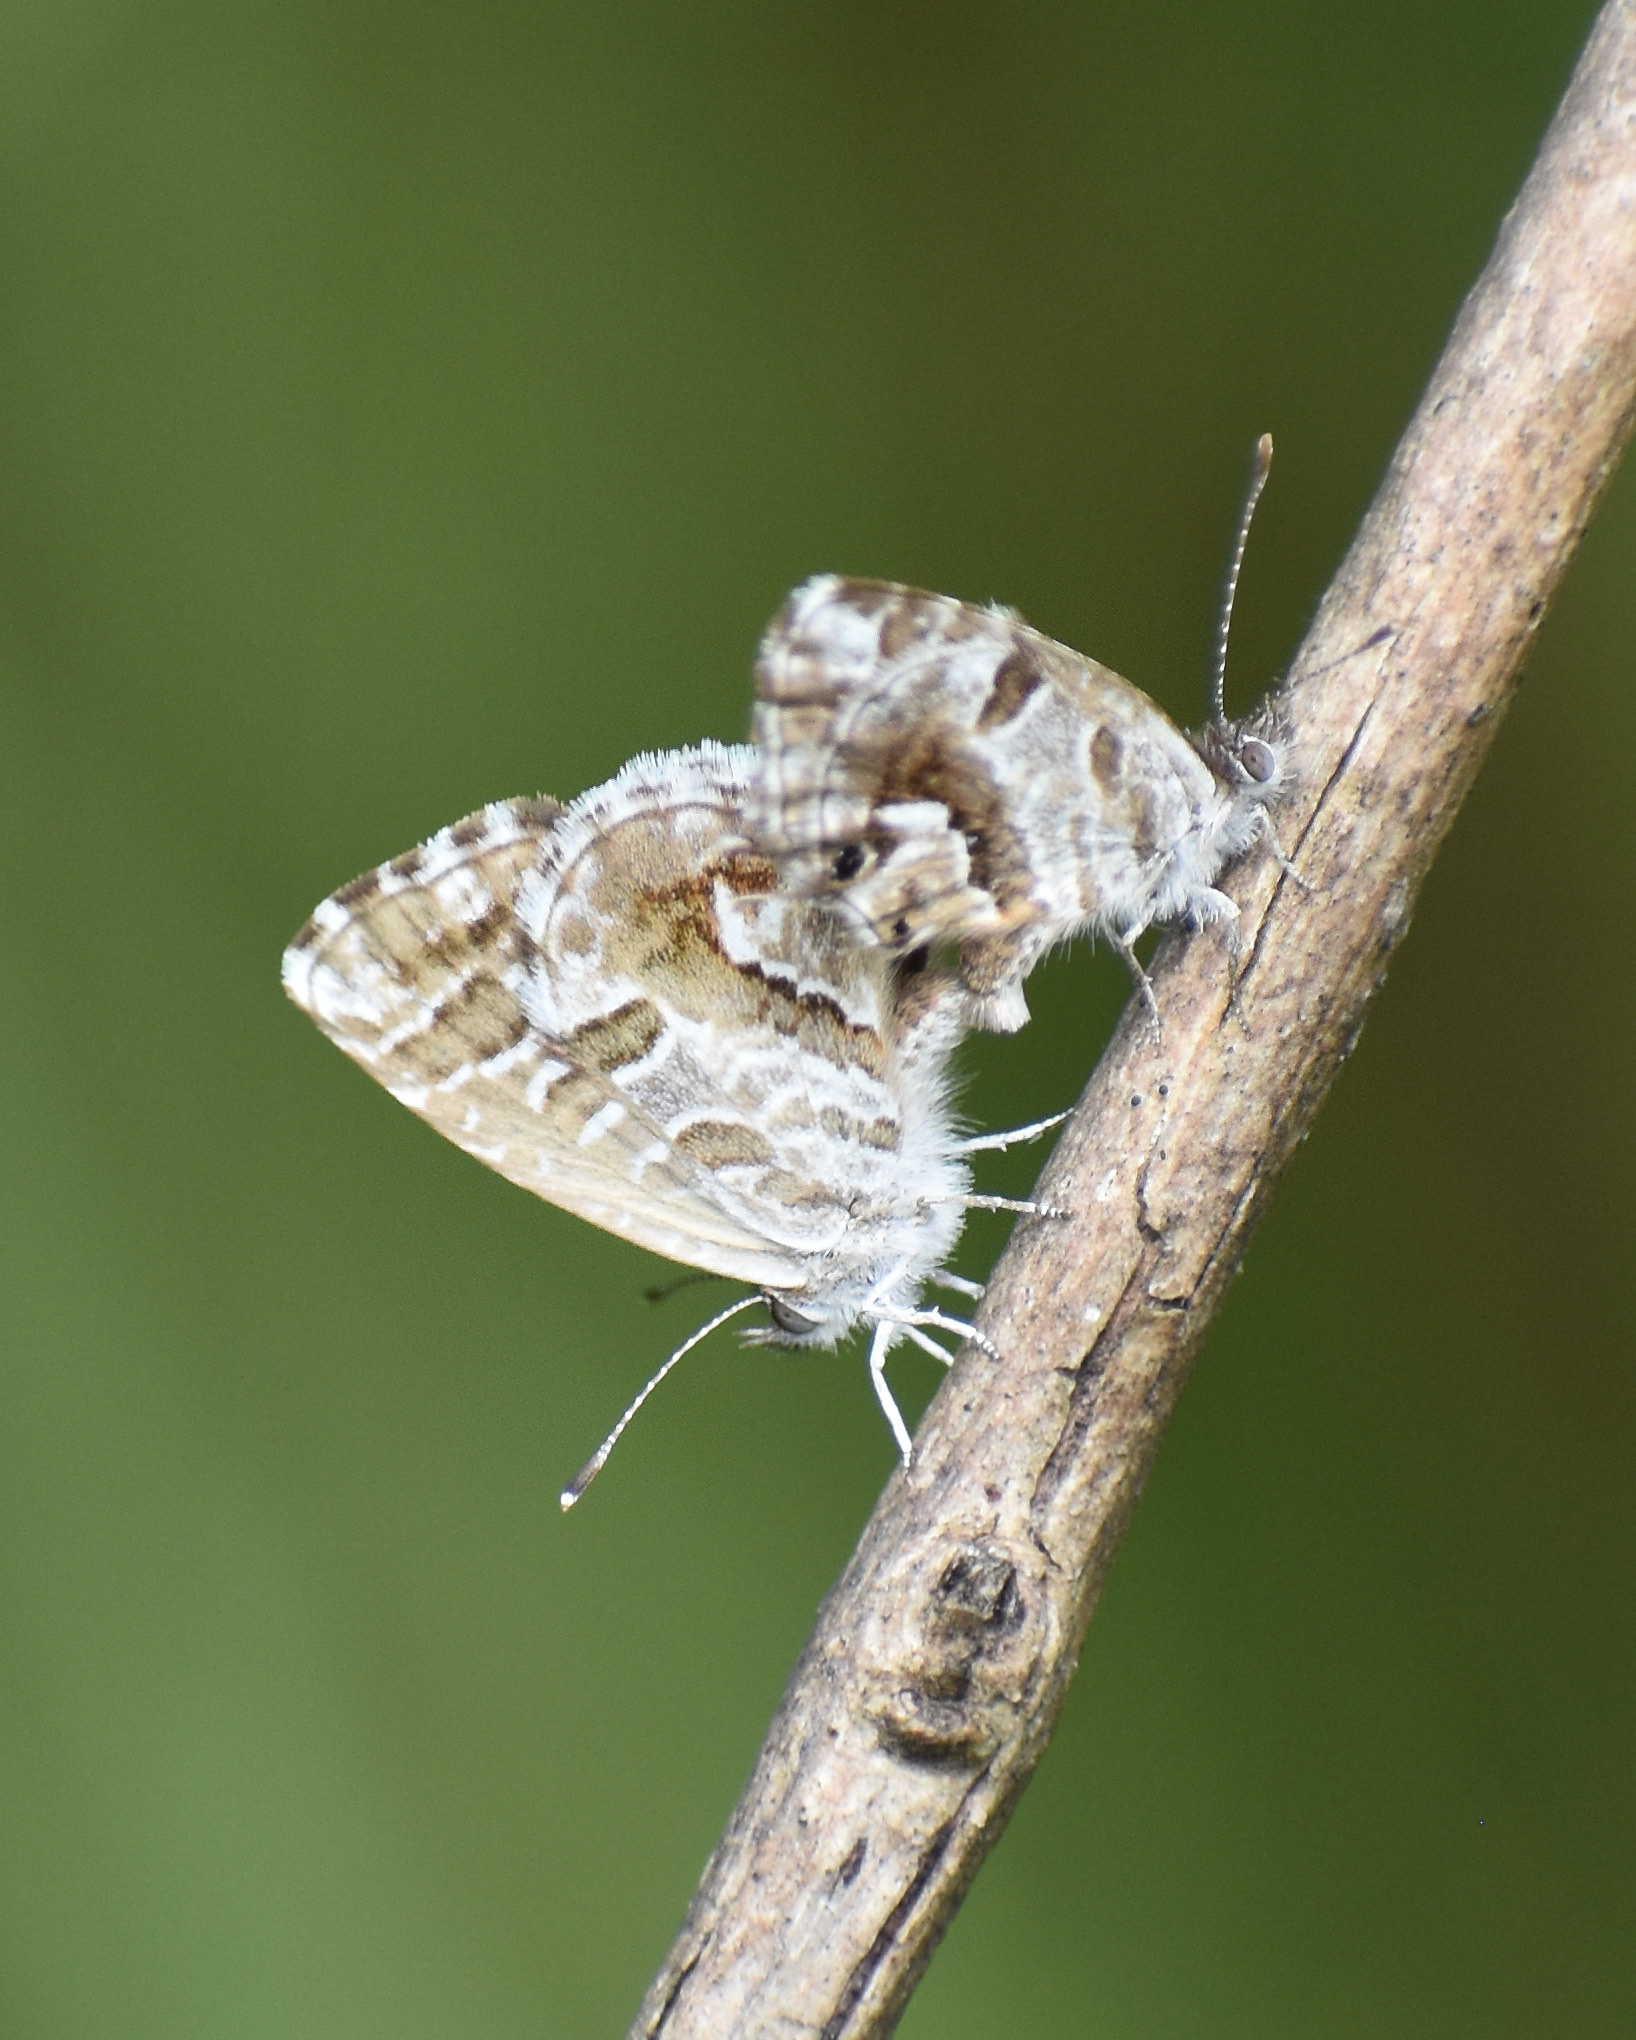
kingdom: Animalia
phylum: Arthropoda
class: Insecta
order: Lepidoptera
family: Lycaenidae
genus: Cacyreus
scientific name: Cacyreus marshalli
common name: Geranium bronze
